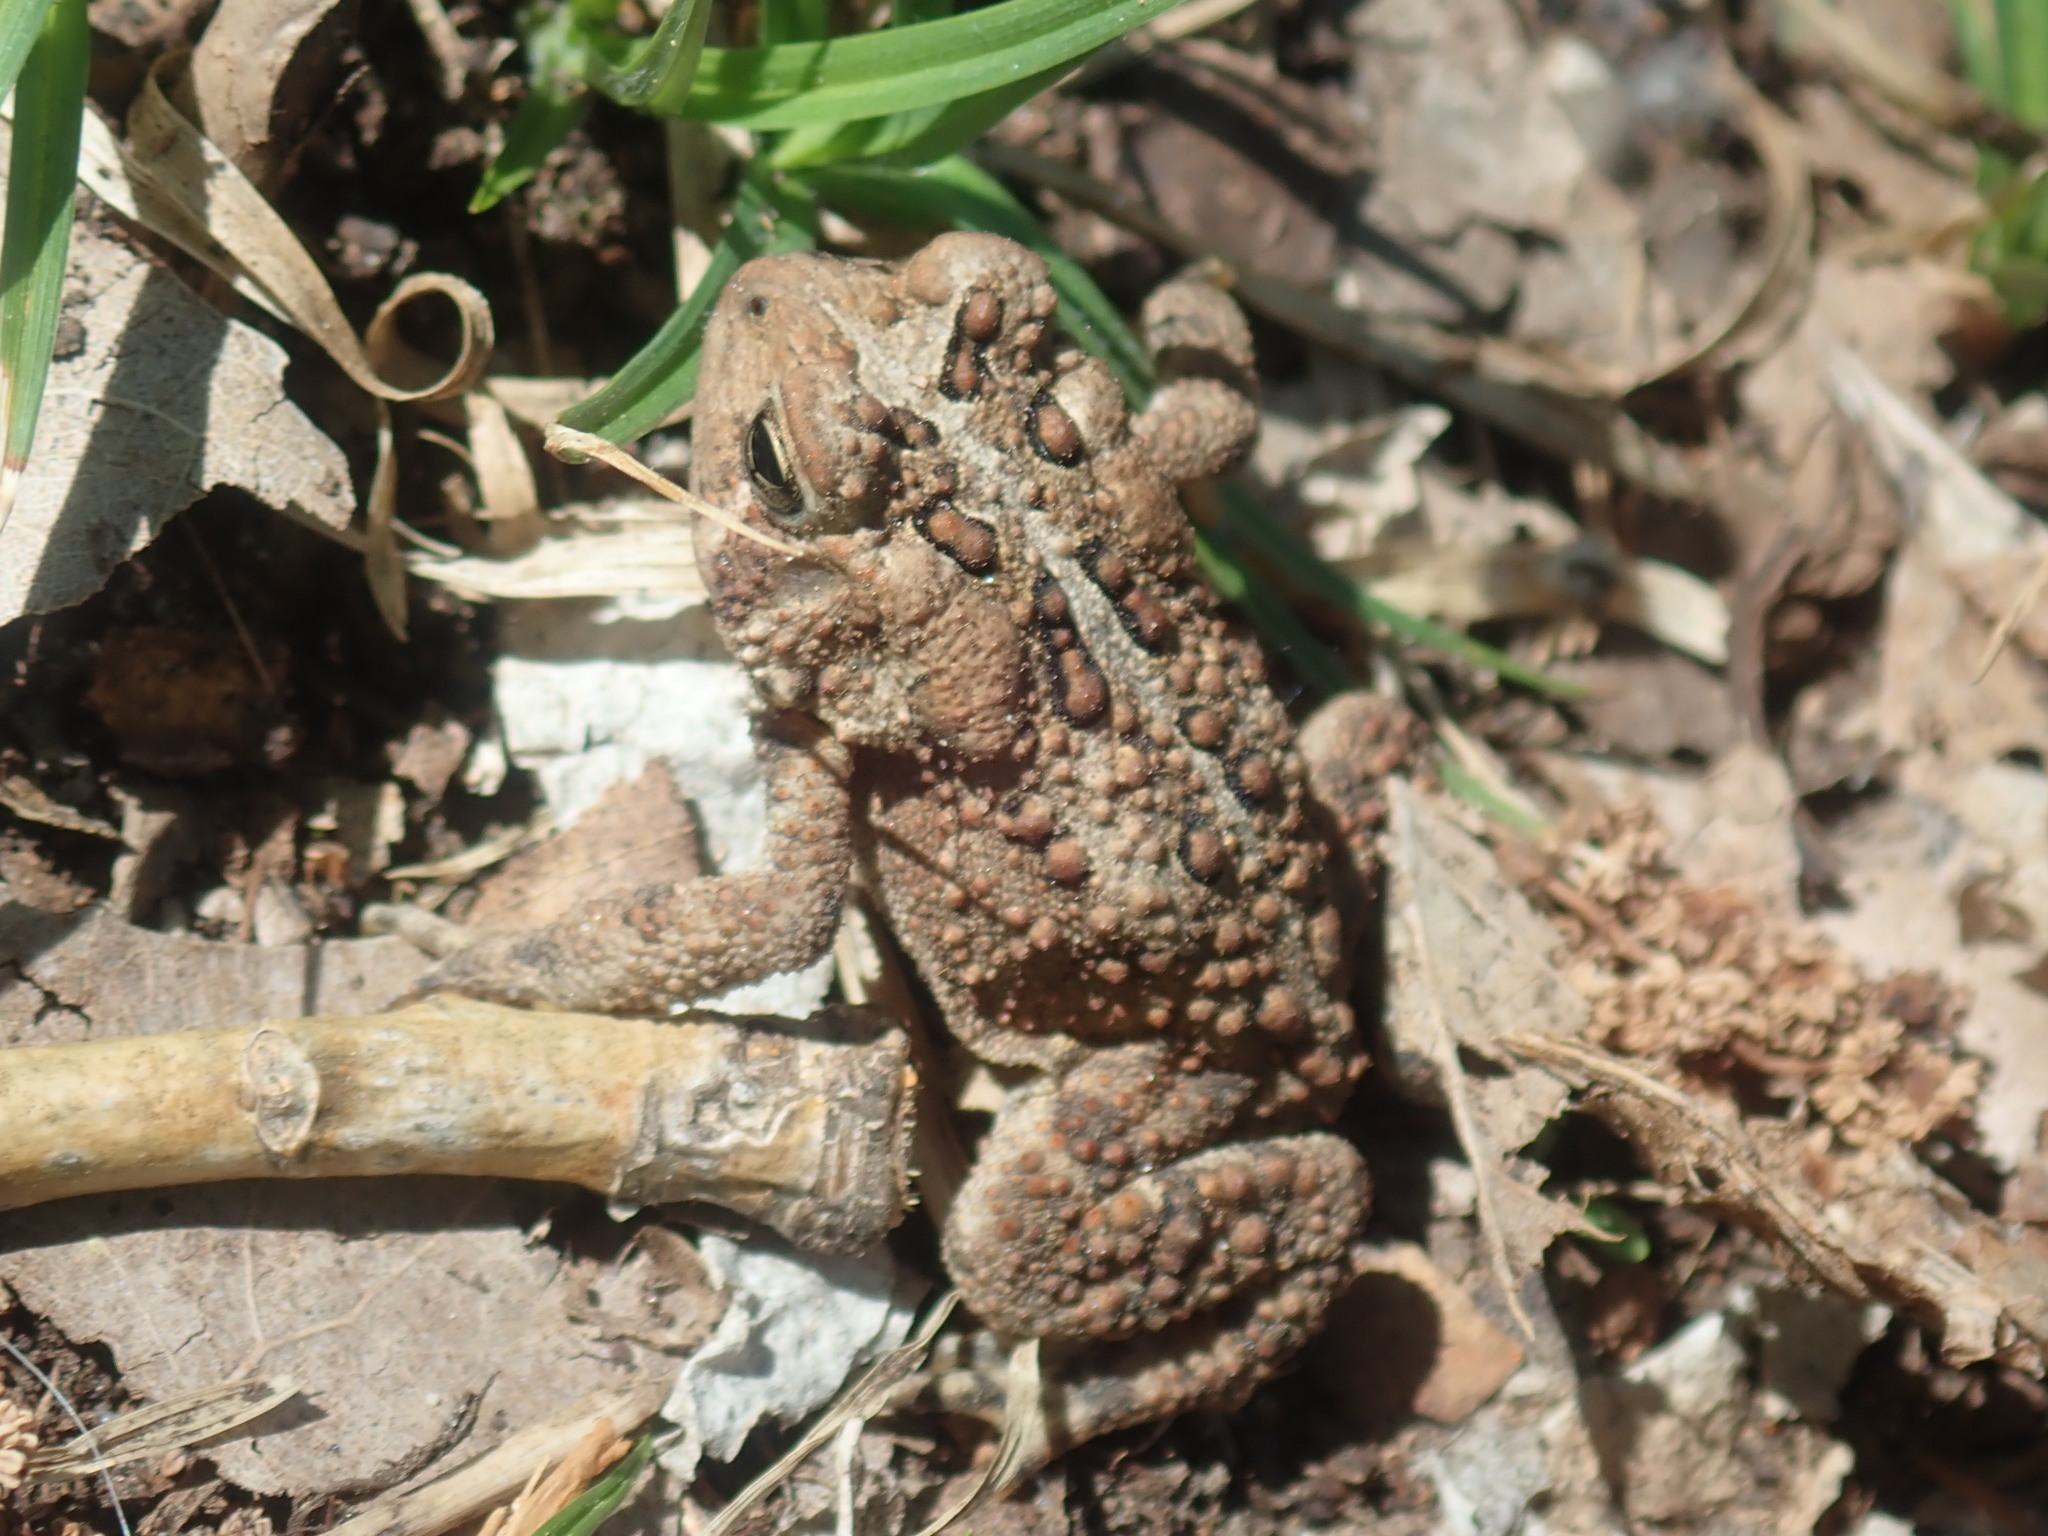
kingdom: Animalia
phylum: Chordata
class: Amphibia
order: Anura
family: Bufonidae
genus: Anaxyrus
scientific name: Anaxyrus americanus
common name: American toad
